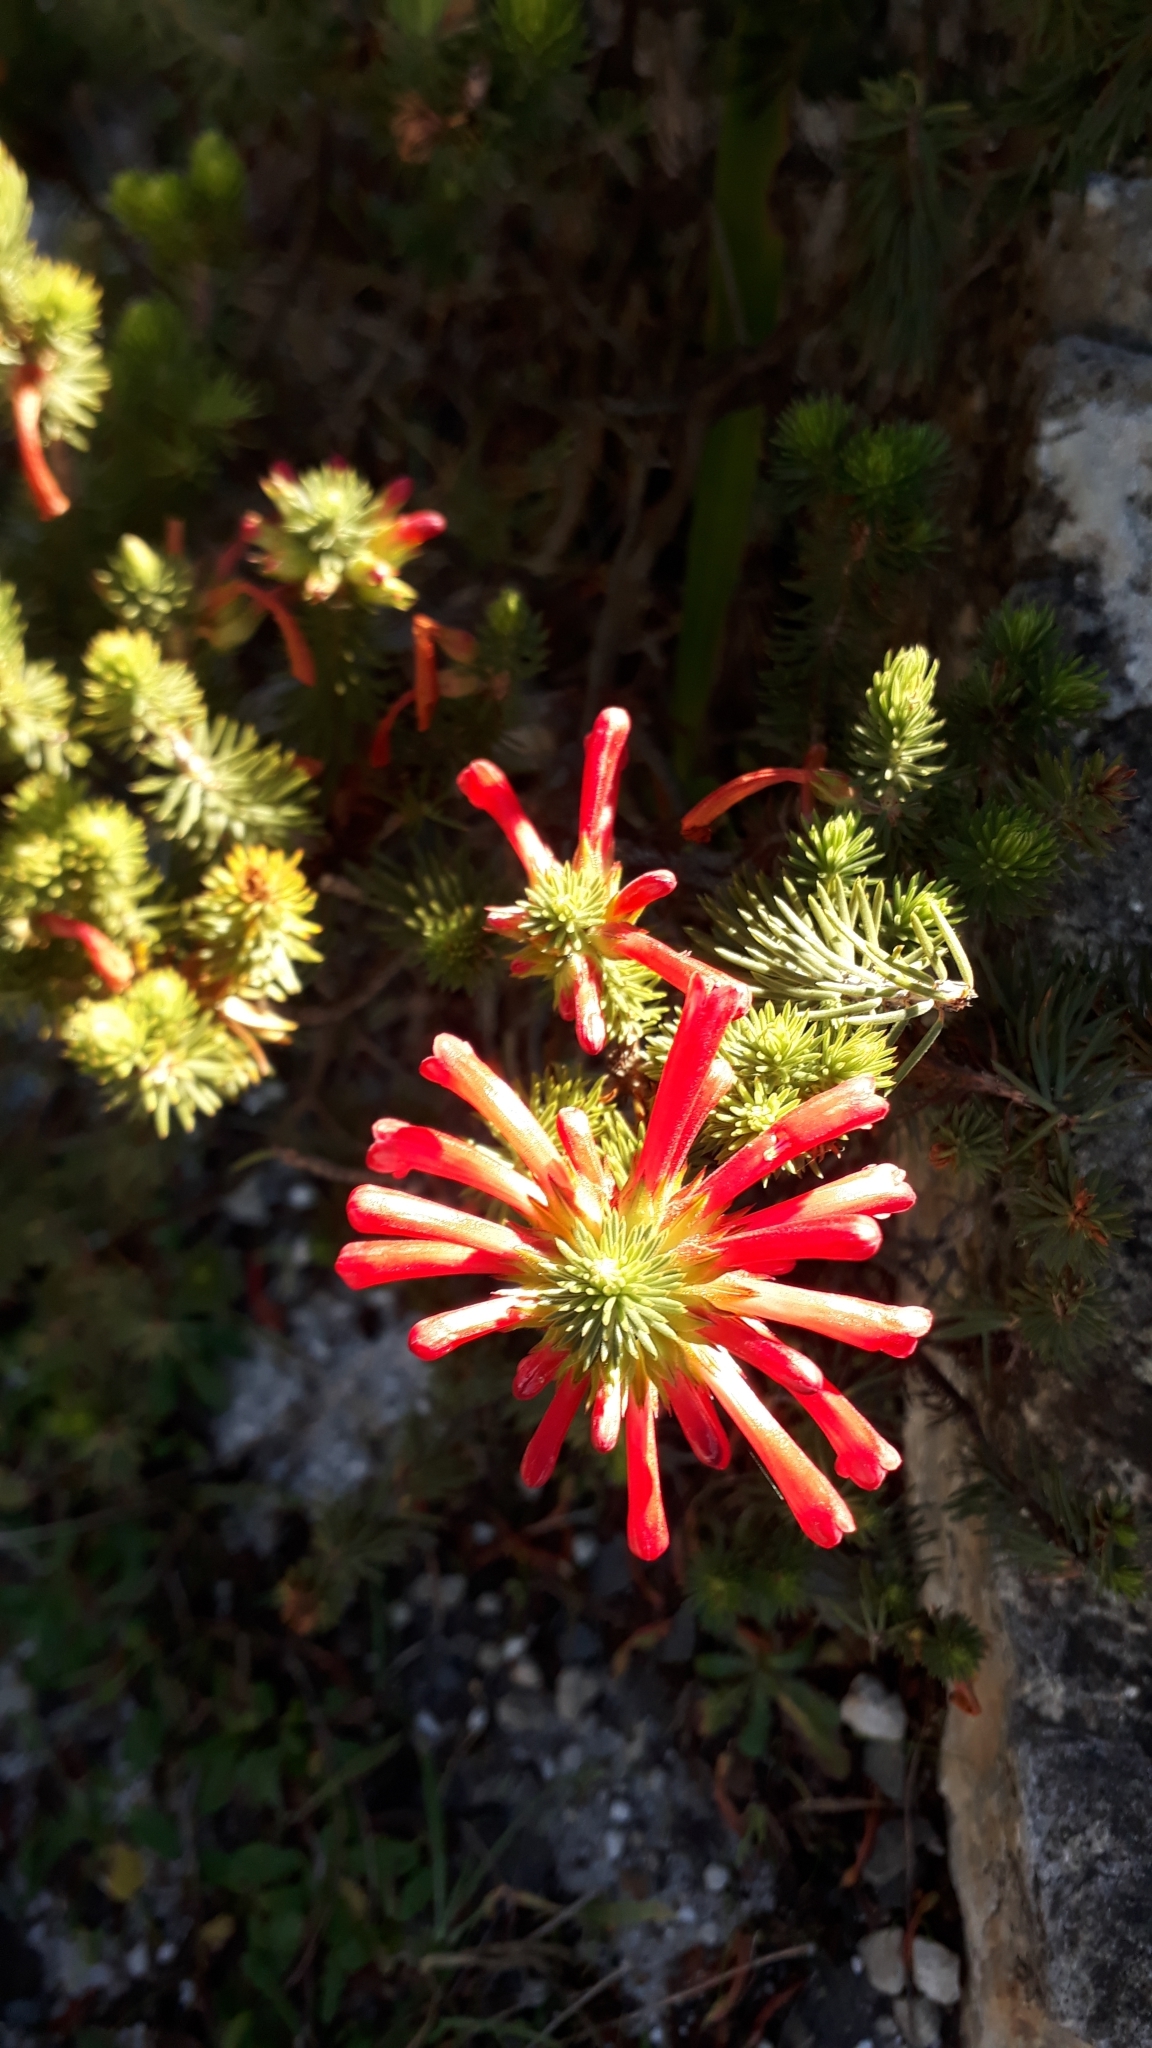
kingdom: Plantae
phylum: Tracheophyta
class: Magnoliopsida
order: Ericales
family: Ericaceae
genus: Erica
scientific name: Erica abietina
